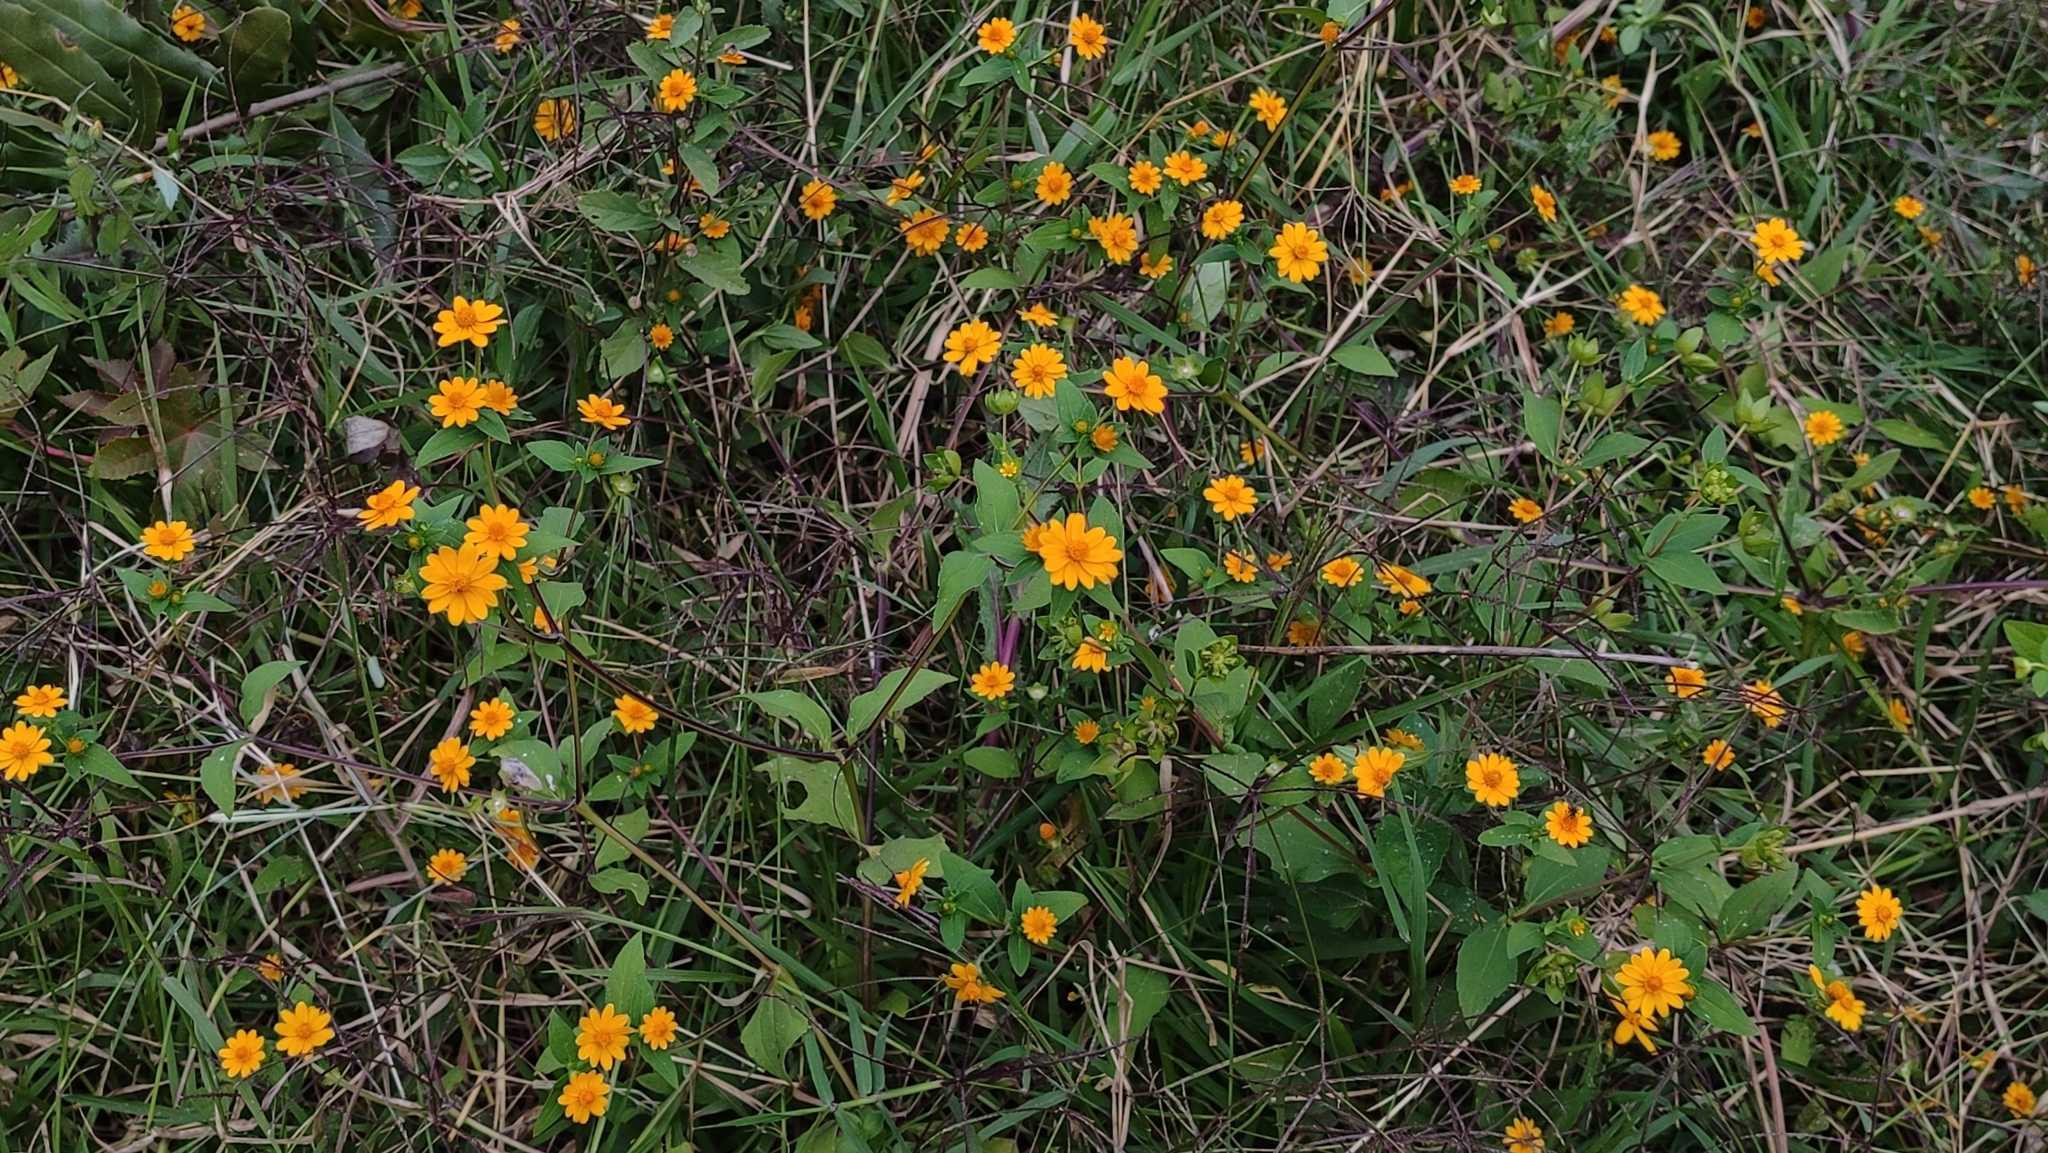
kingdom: Plantae
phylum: Tracheophyta
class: Magnoliopsida
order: Asterales
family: Asteraceae
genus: Melampodium
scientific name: Melampodium divaricatum
